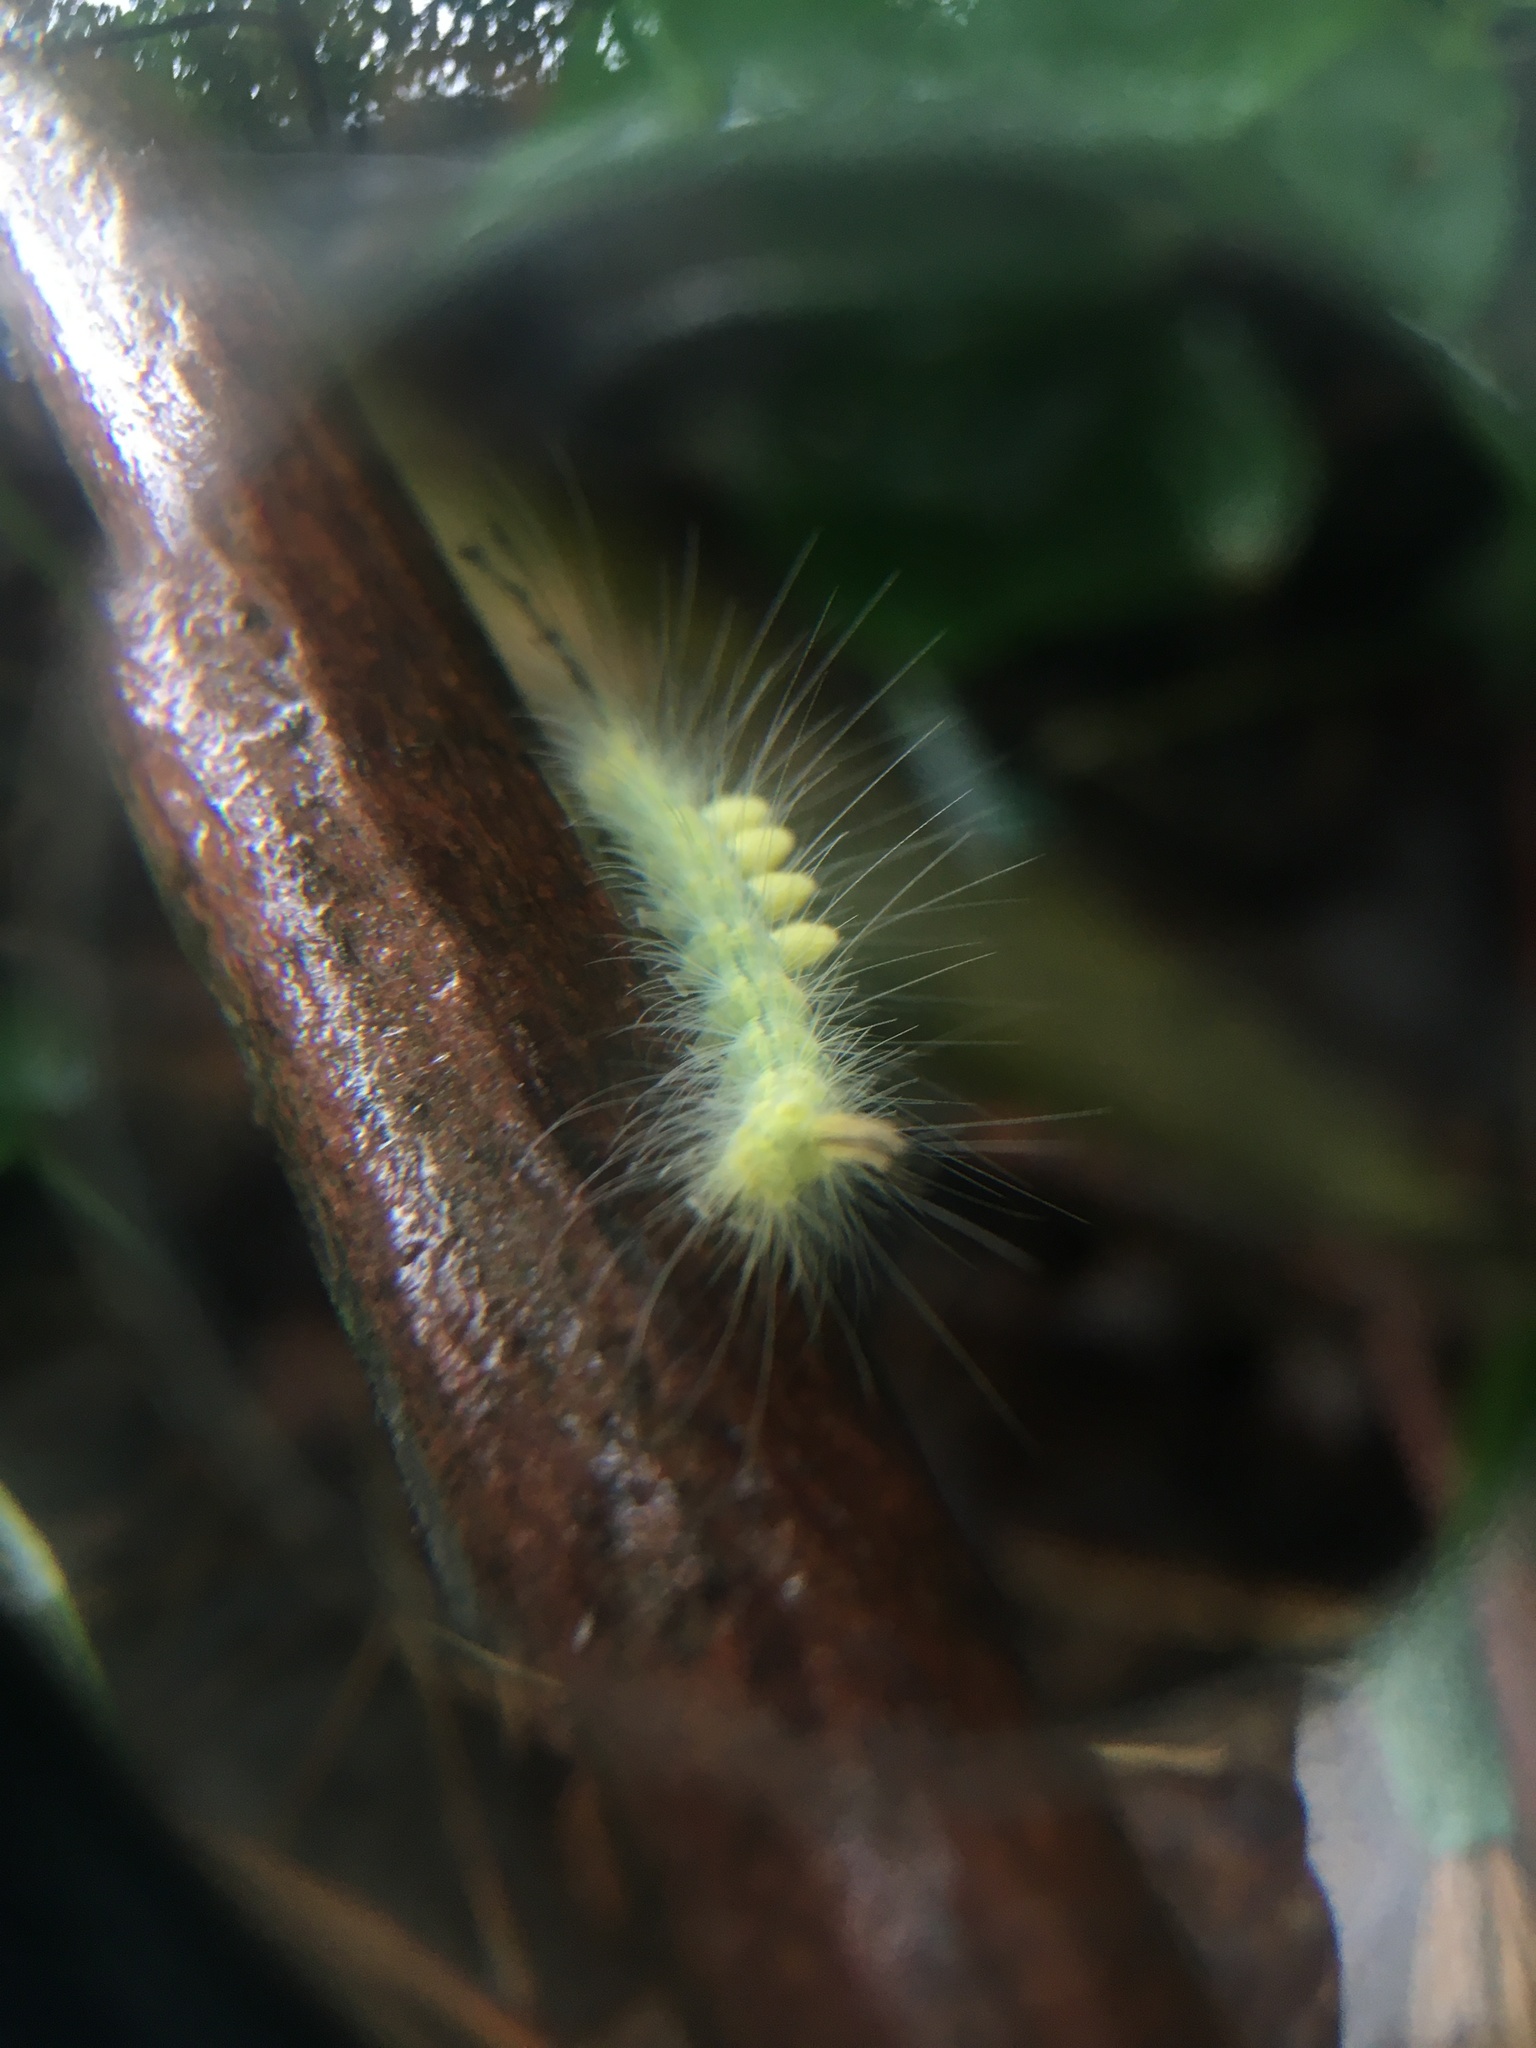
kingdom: Animalia
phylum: Arthropoda
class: Insecta
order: Lepidoptera
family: Erebidae
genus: Orgyia
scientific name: Orgyia definita
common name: Definite tussock moth
